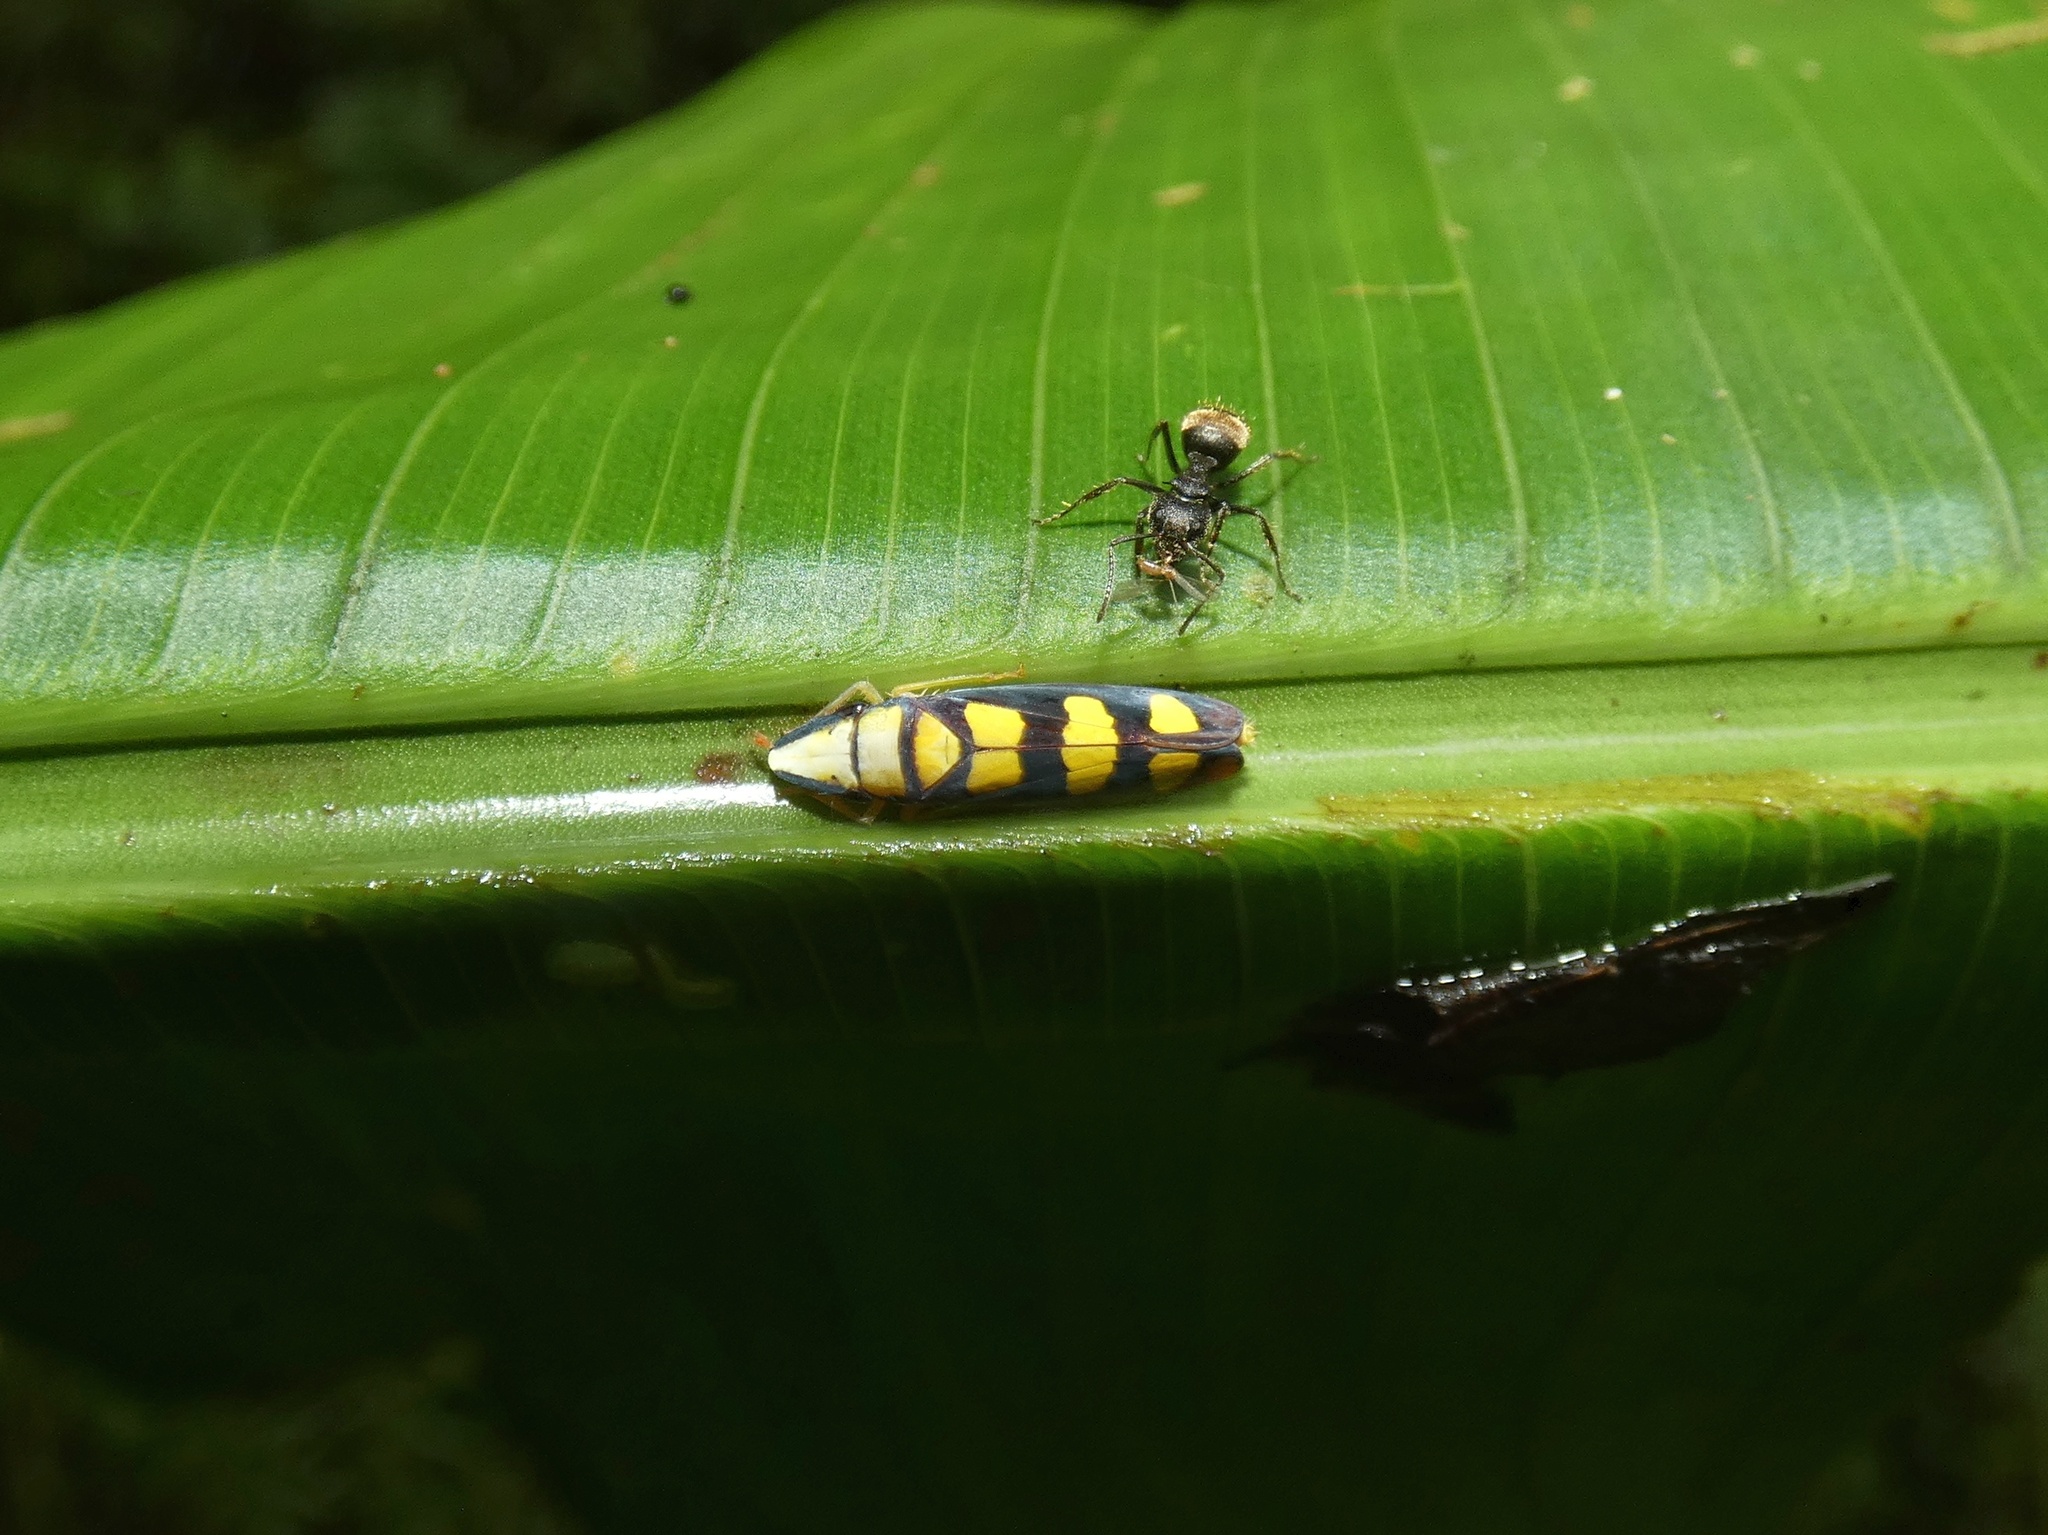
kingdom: Animalia
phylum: Arthropoda
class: Insecta
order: Hemiptera
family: Cicadellidae
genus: Platygonia
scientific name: Platygonia spatulata
